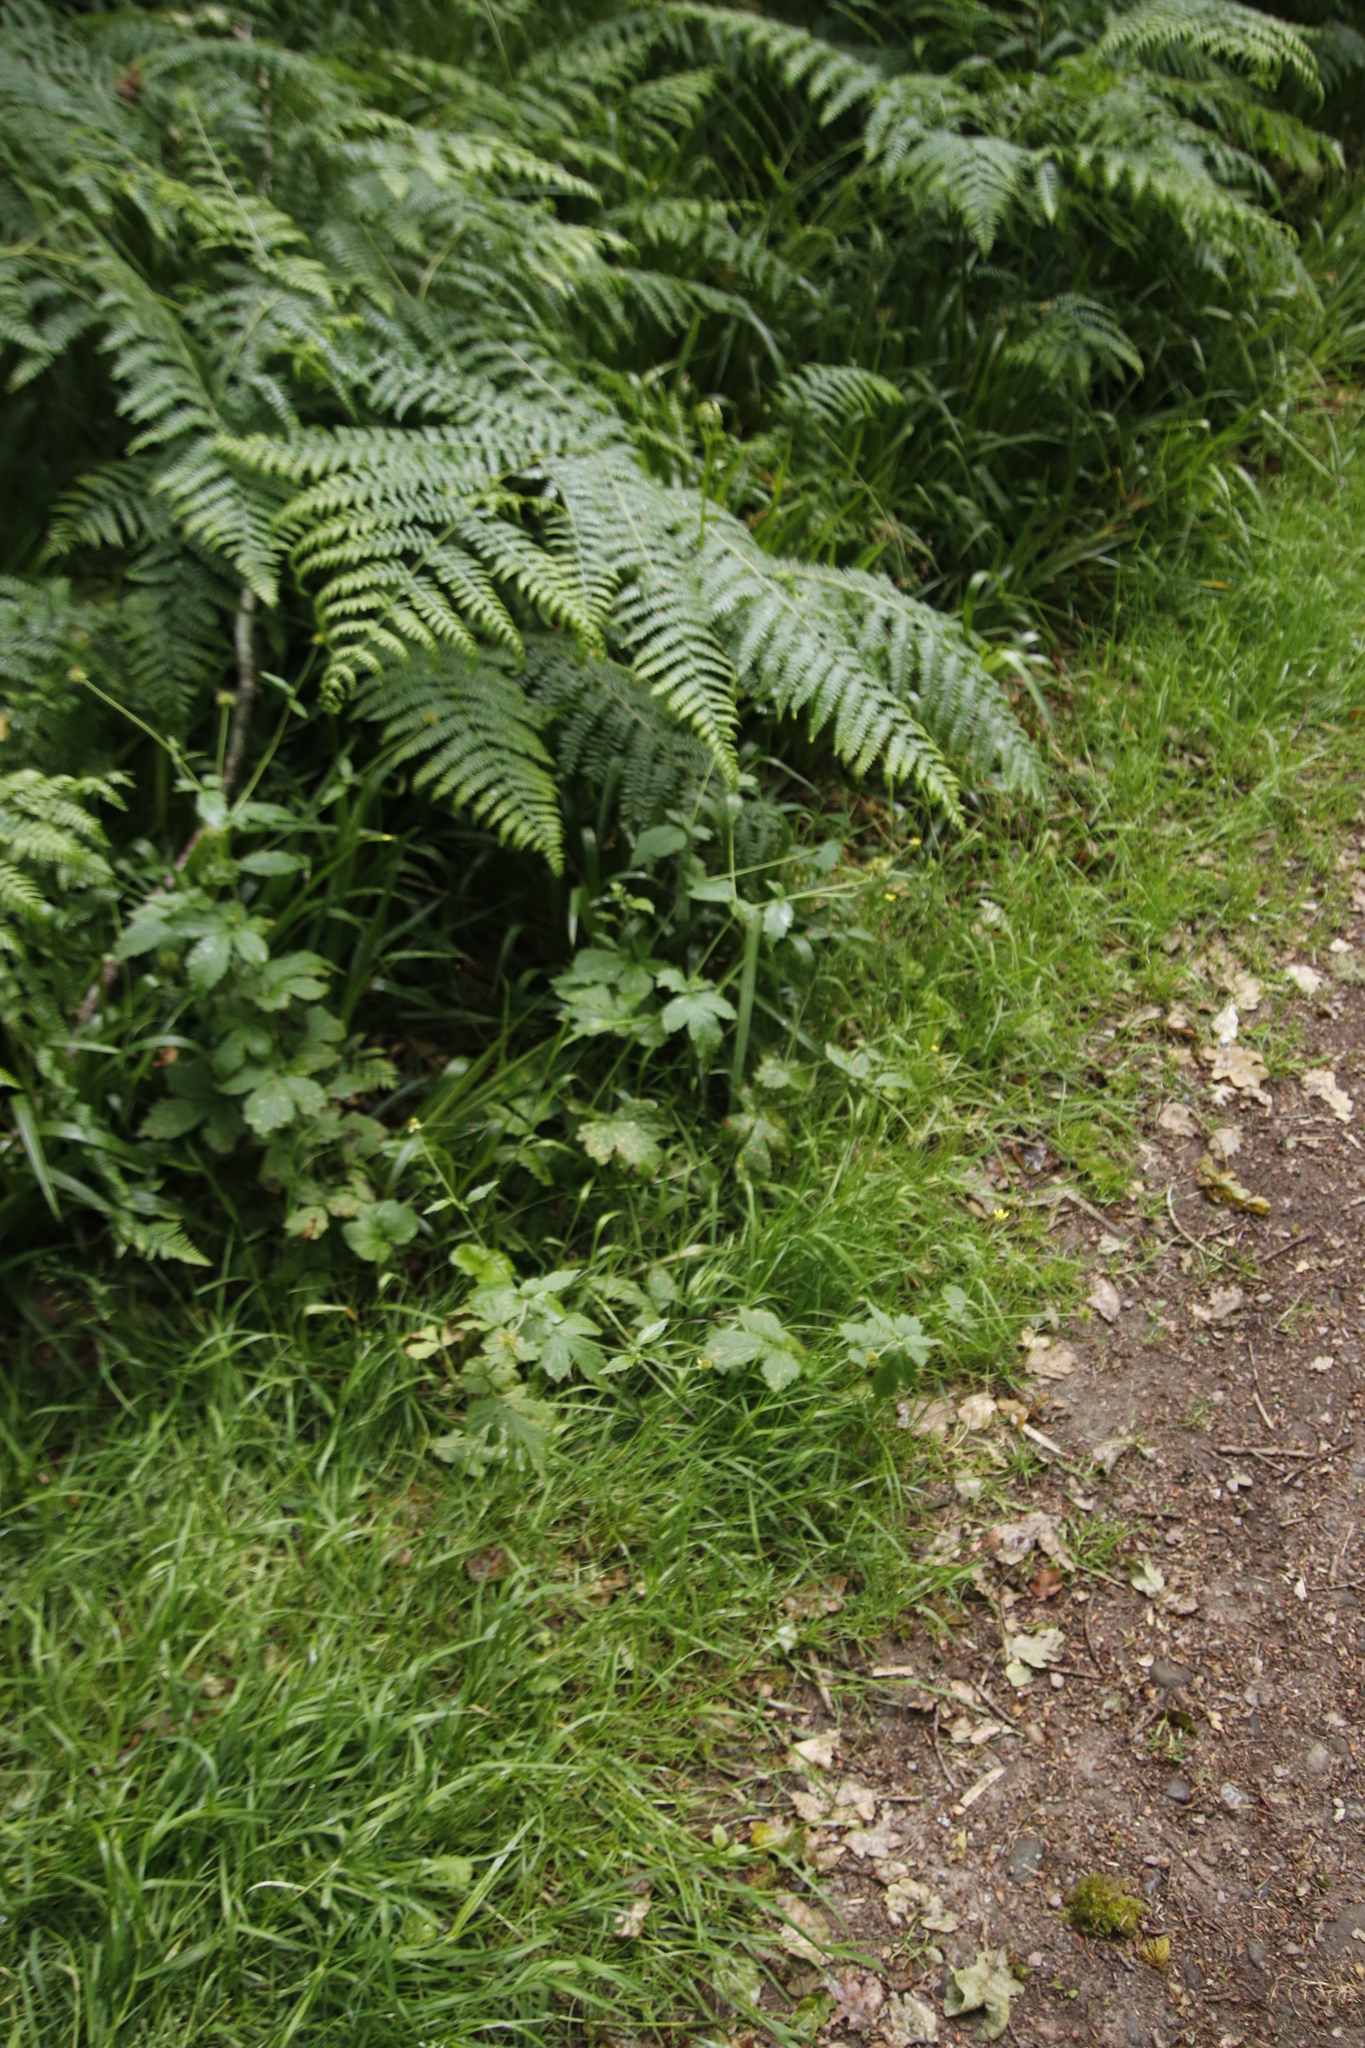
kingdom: Plantae
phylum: Tracheophyta
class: Polypodiopsida
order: Polypodiales
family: Dennstaedtiaceae
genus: Pteridium
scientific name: Pteridium aquilinum
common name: Bracken
